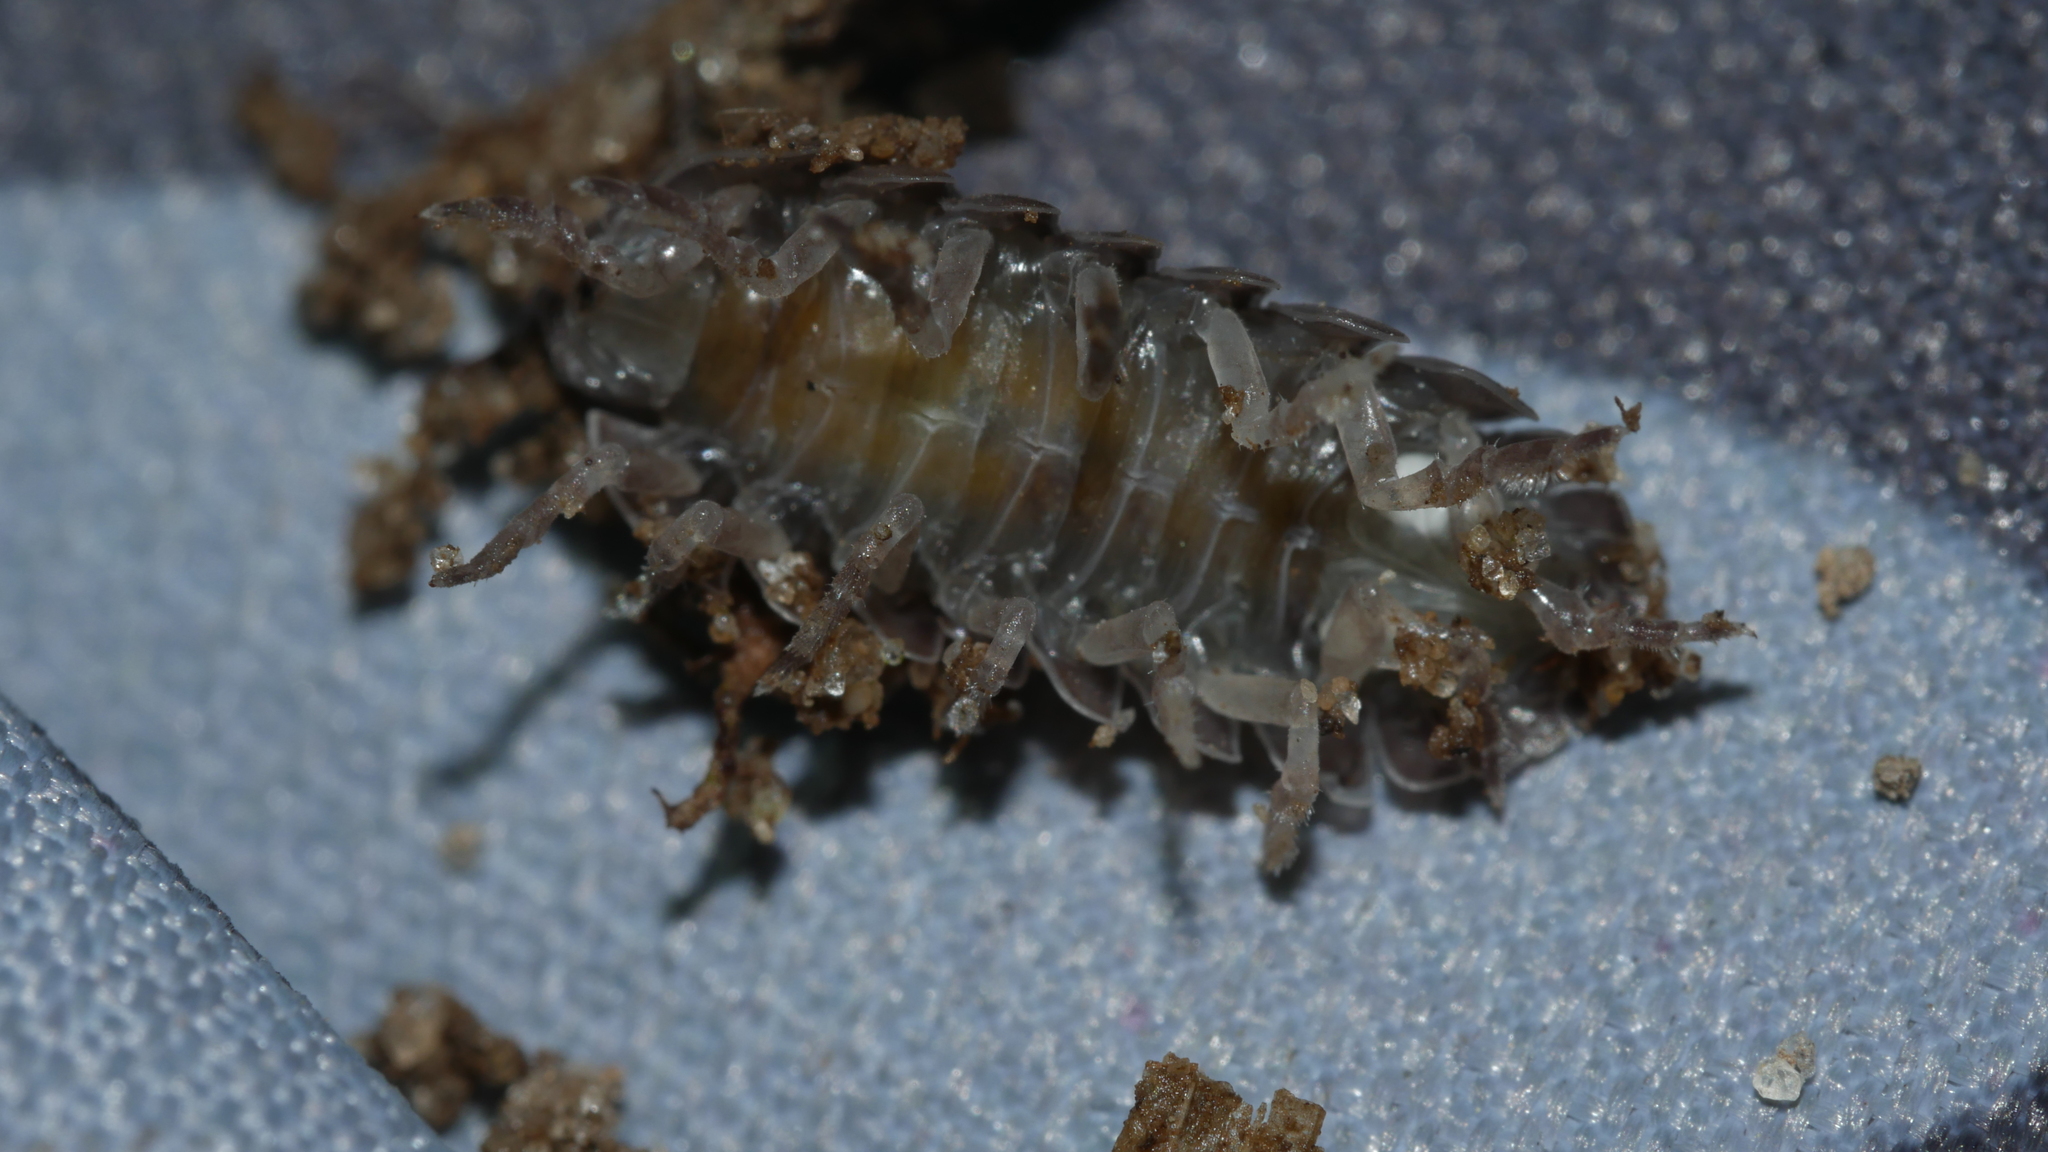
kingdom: Animalia
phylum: Arthropoda
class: Malacostraca
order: Isopoda
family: Armadillidiidae
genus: Armadillidium
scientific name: Armadillidium vulgare
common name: Common pill woodlouse
